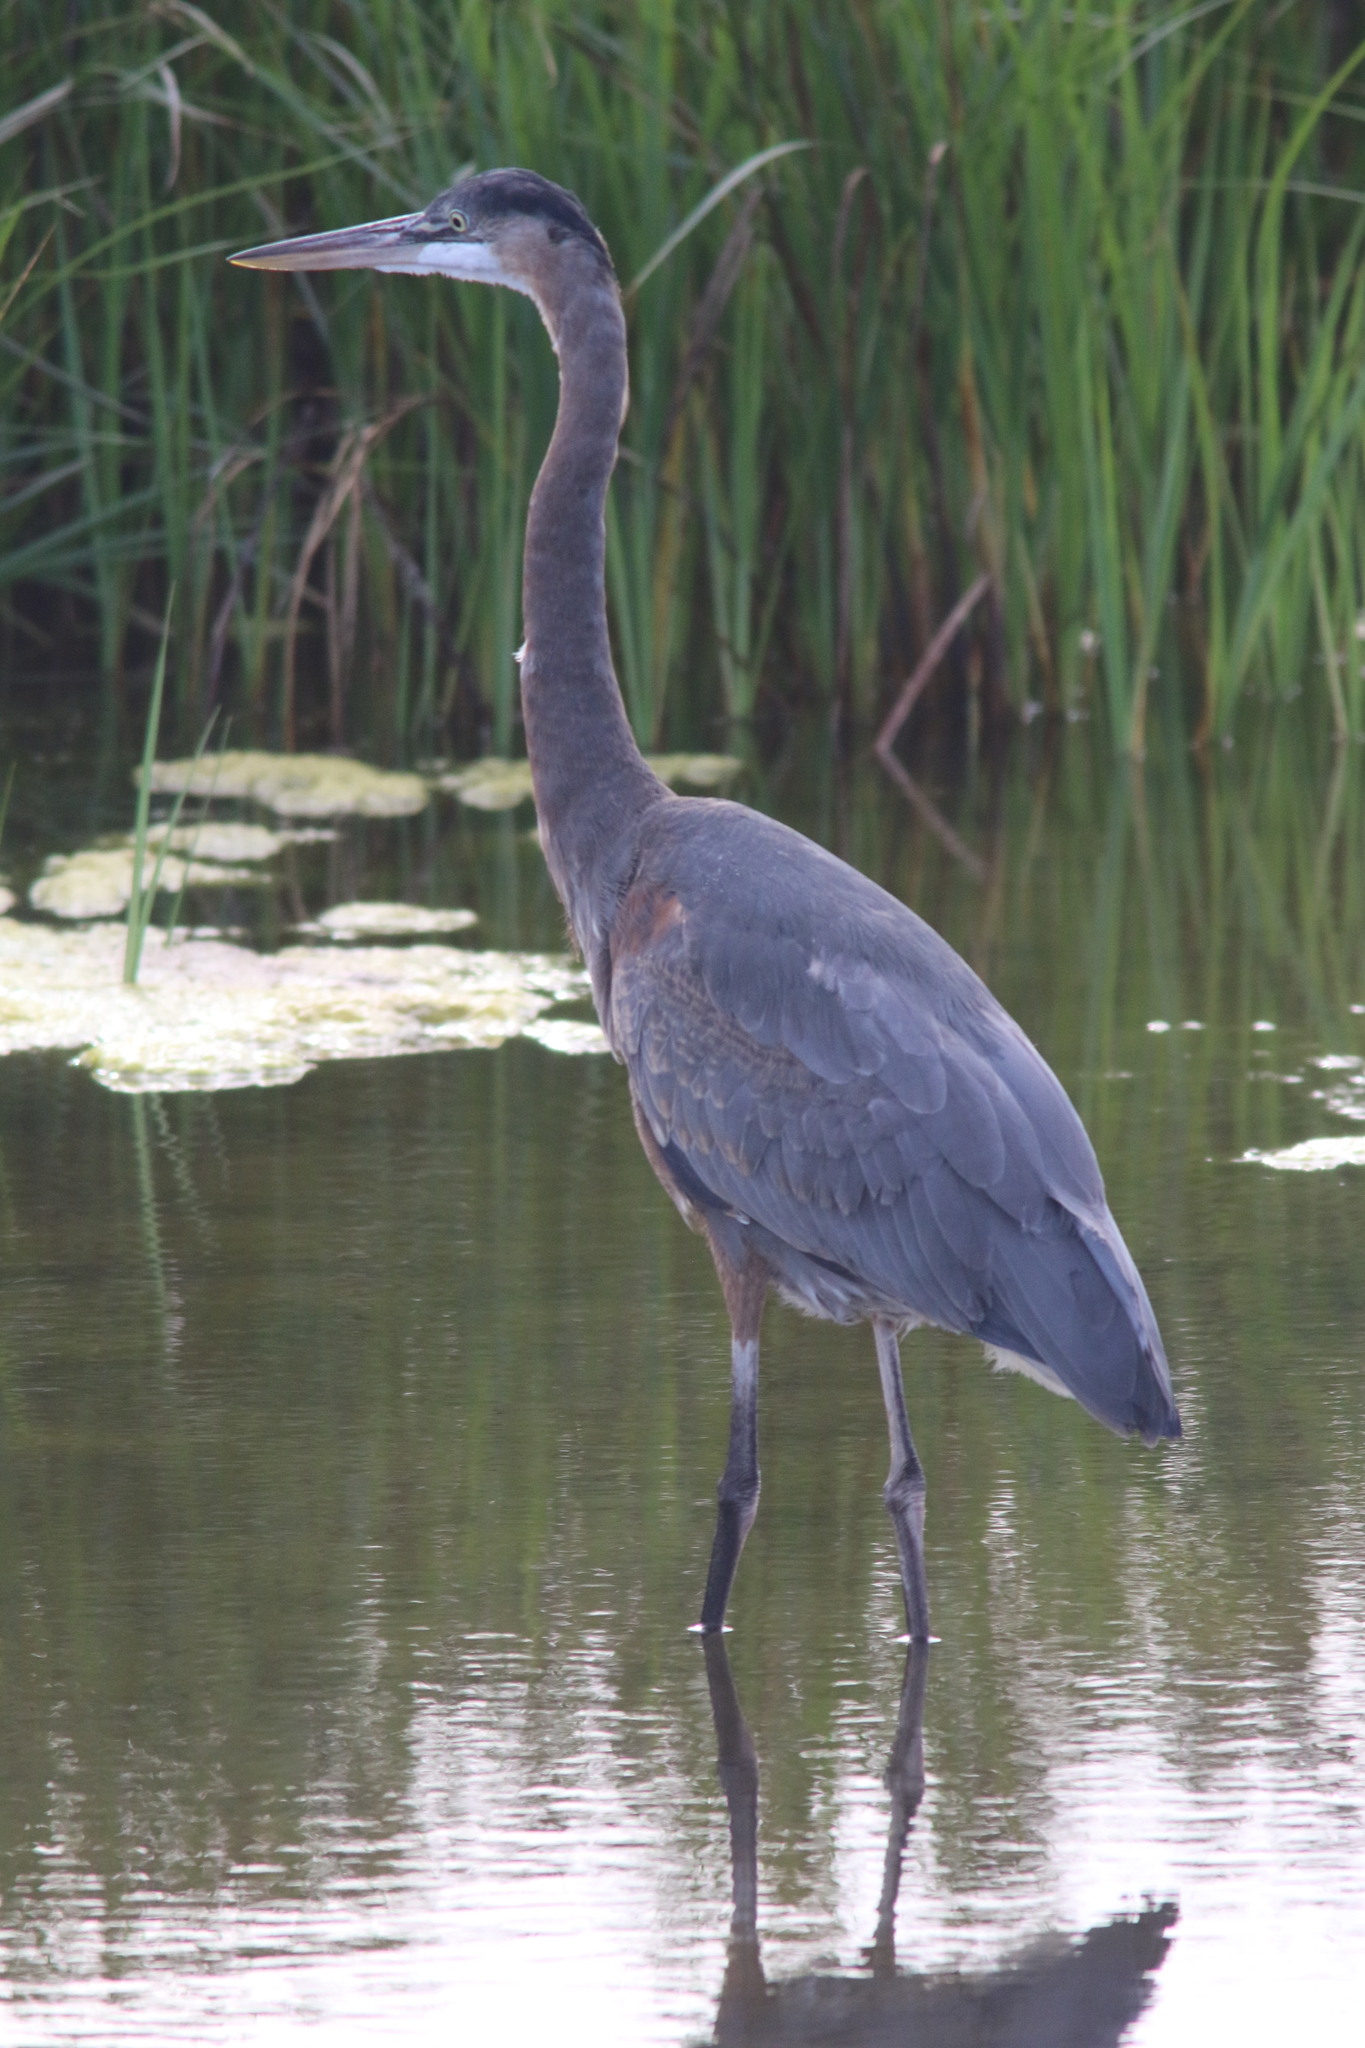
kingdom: Animalia
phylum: Chordata
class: Aves
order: Pelecaniformes
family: Ardeidae
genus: Ardea
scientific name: Ardea herodias
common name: Great blue heron
